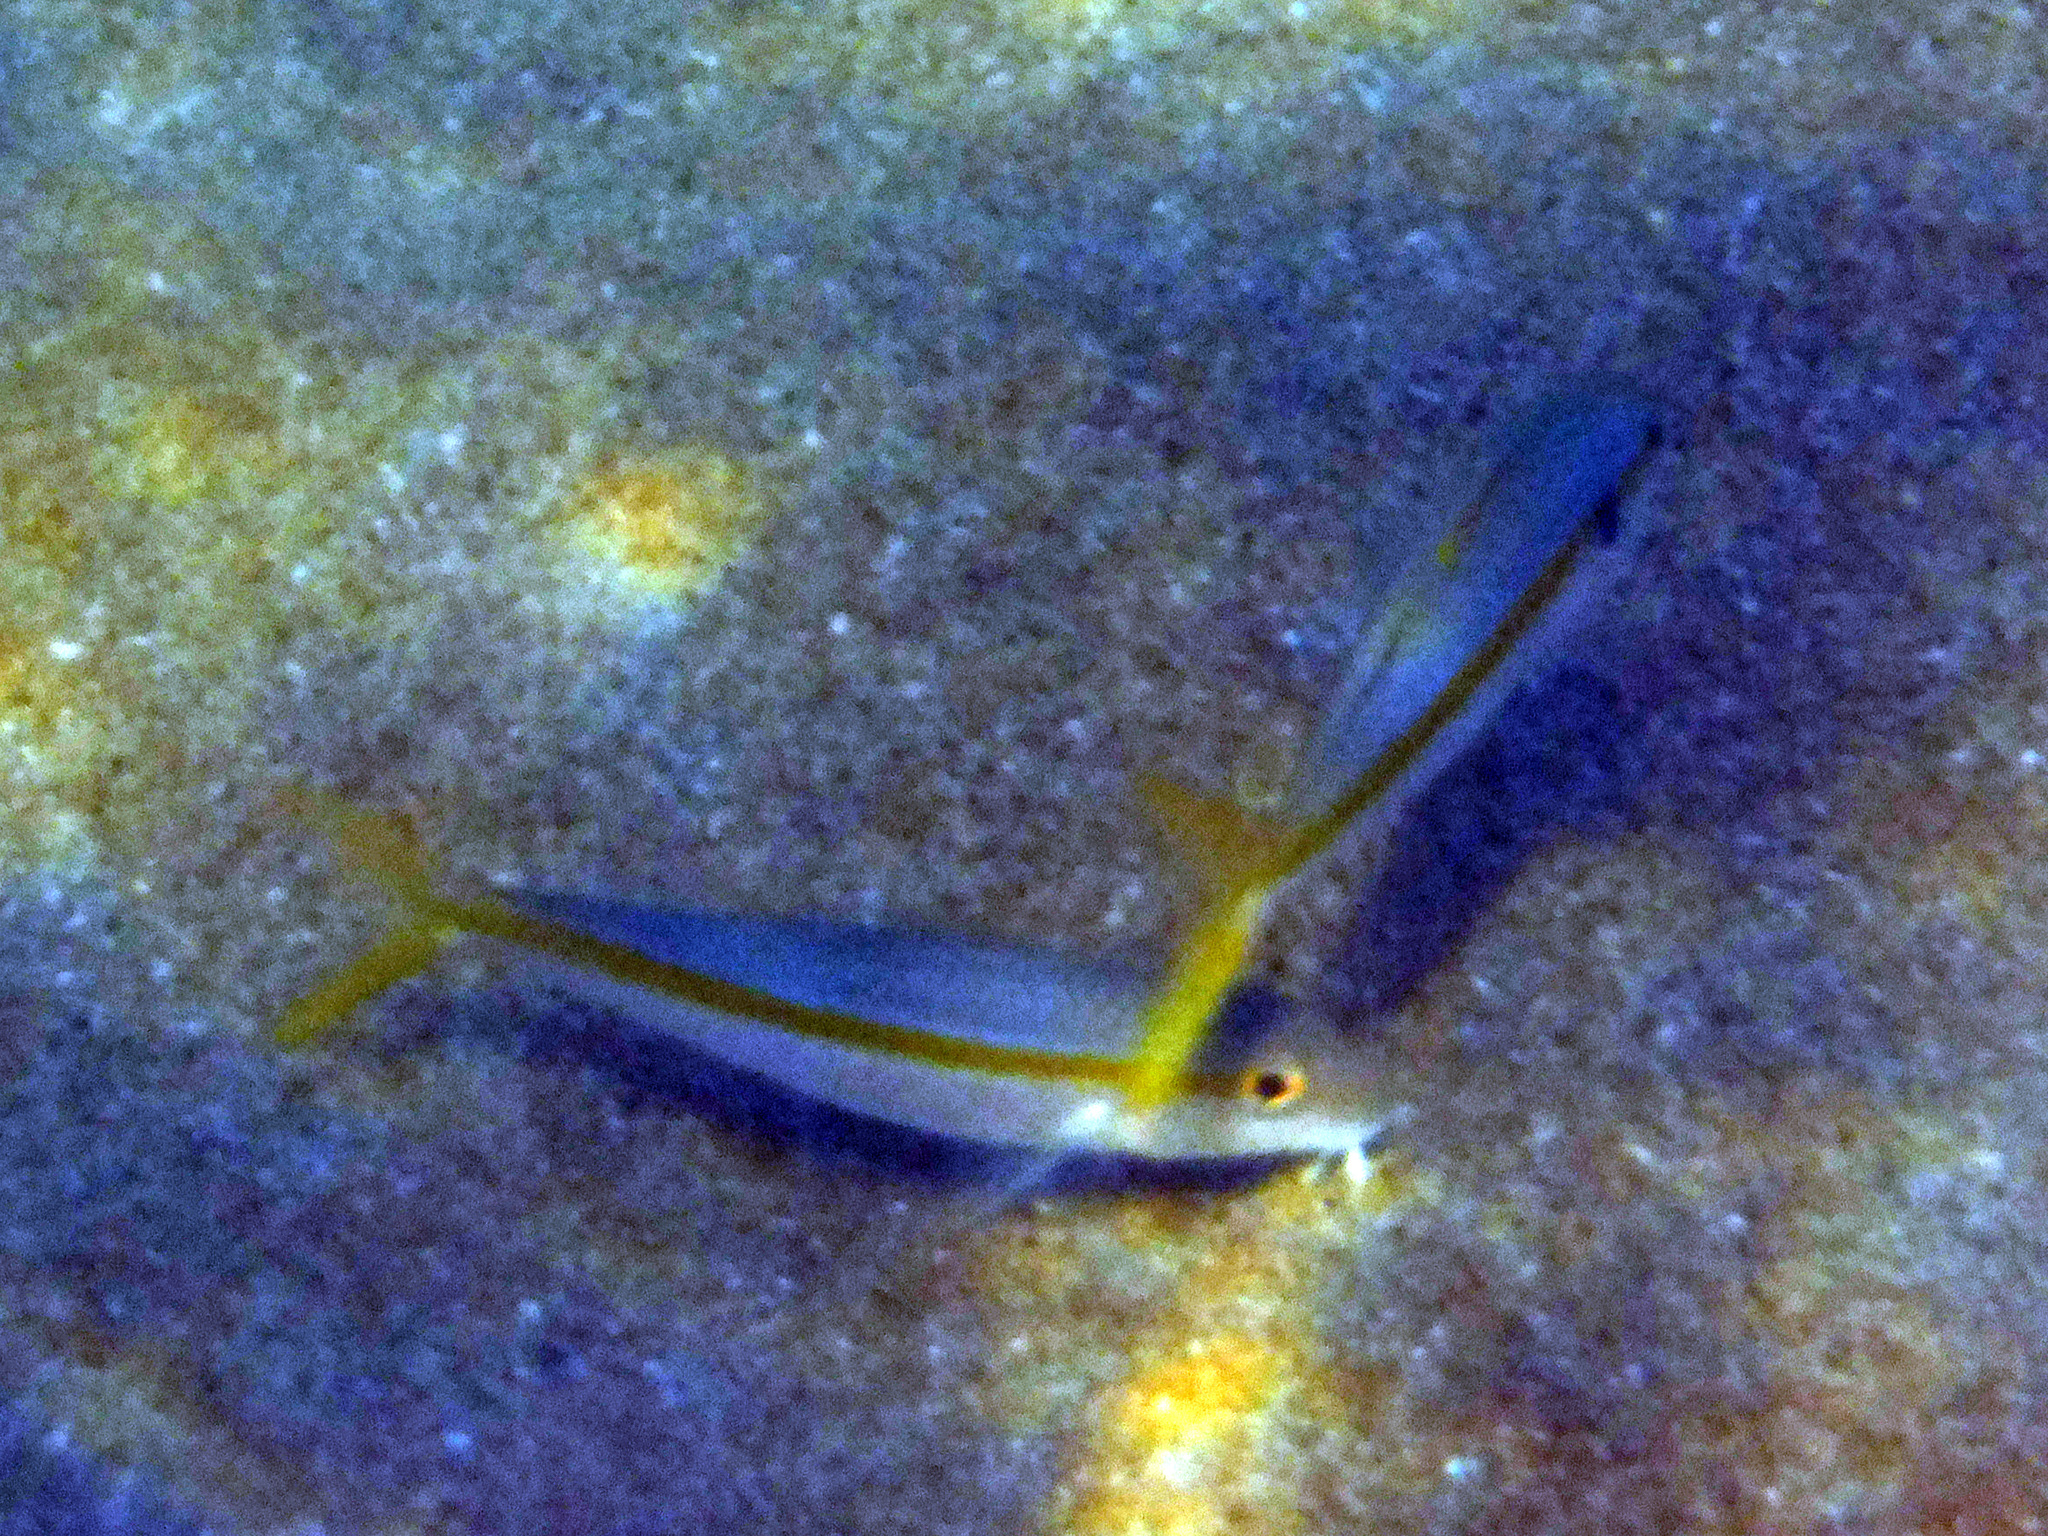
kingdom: Animalia
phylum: Chordata
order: Perciformes
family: Mullidae
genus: Mulloidichthys
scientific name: Mulloidichthys dentatus
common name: Mexican goatfish
